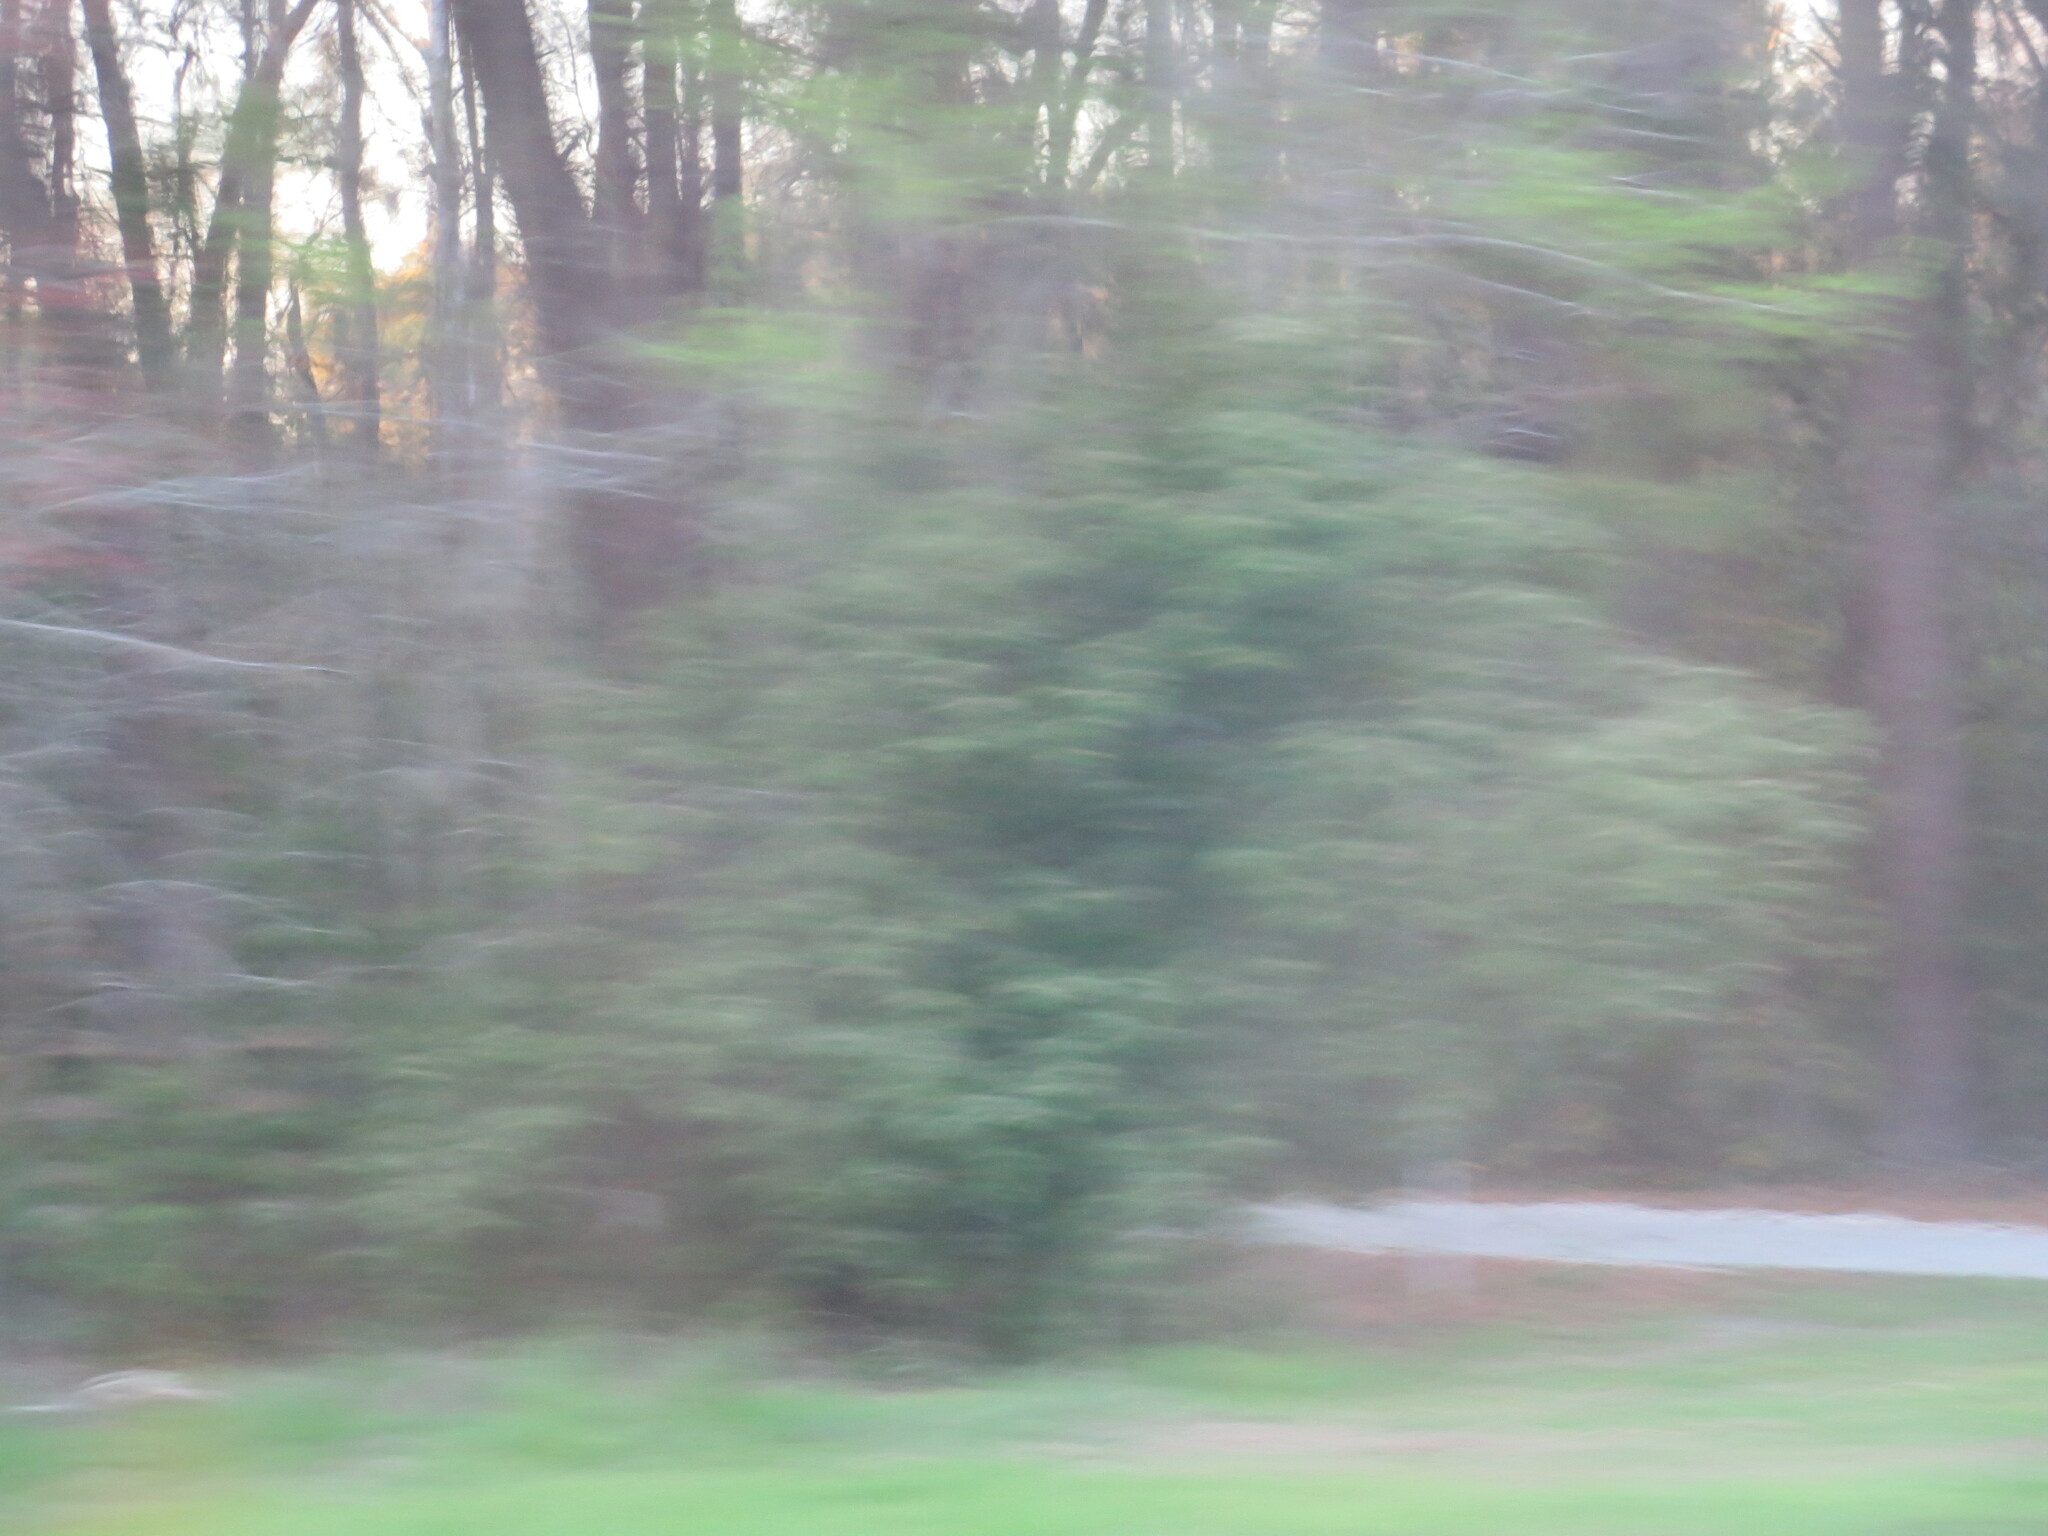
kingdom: Plantae
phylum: Tracheophyta
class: Magnoliopsida
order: Rosales
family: Rosaceae
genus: Prunus
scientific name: Prunus caroliniana
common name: Carolina laurel cherry
